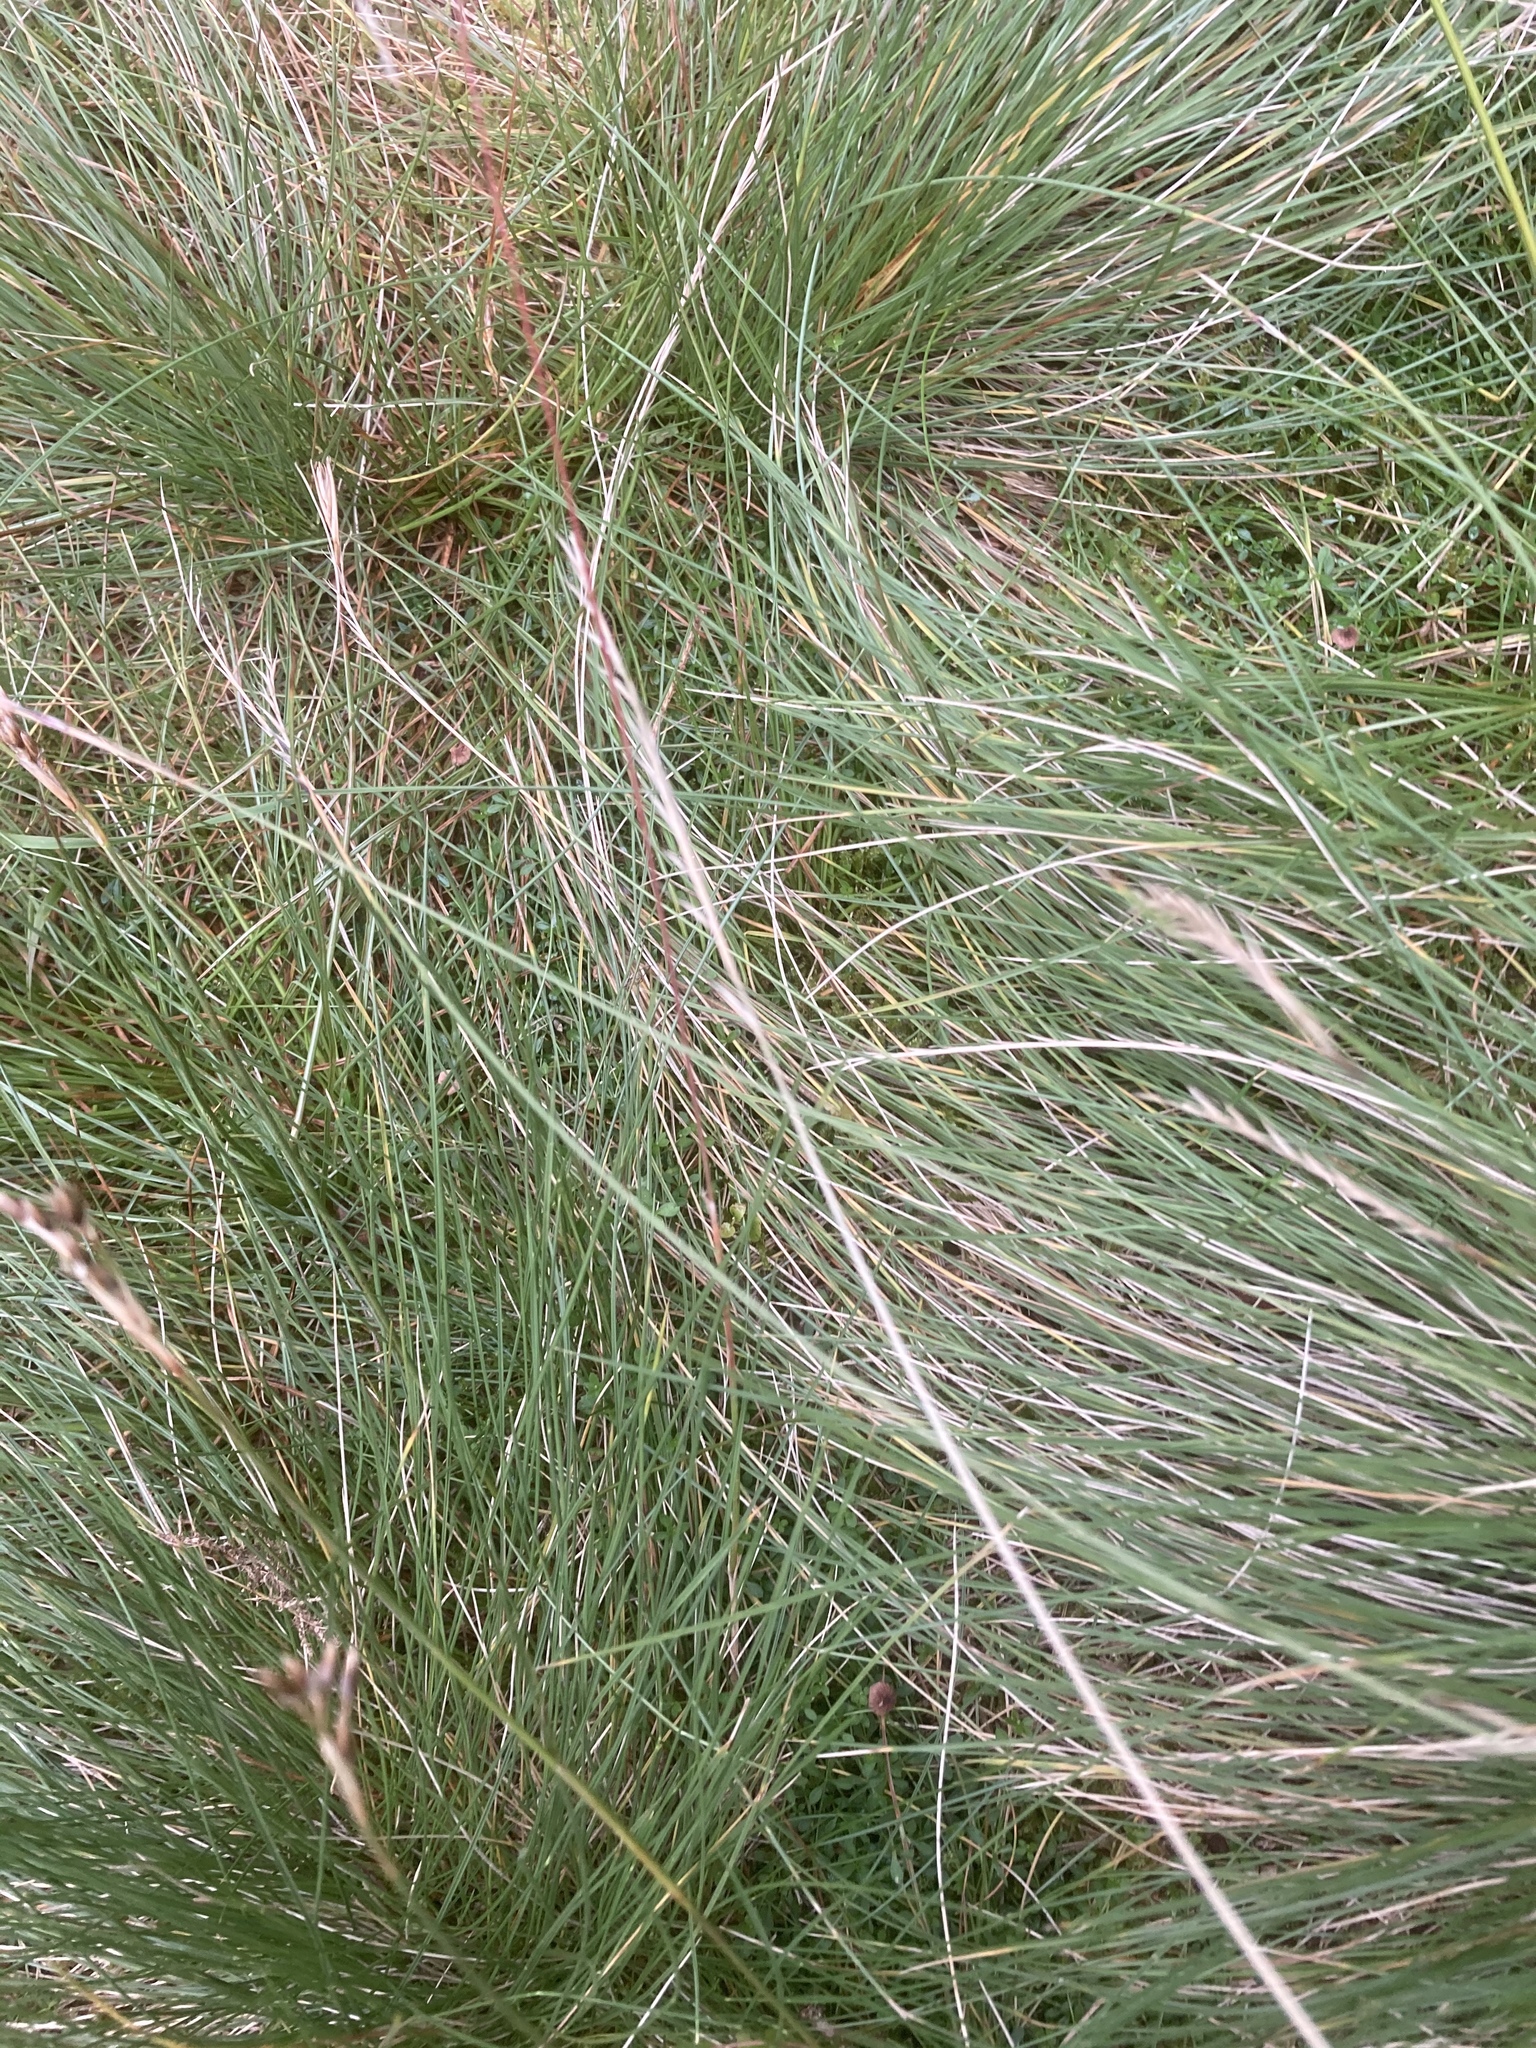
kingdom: Plantae
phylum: Tracheophyta
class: Liliopsida
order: Poales
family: Poaceae
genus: Nardus
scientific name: Nardus stricta
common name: Mat-grass
